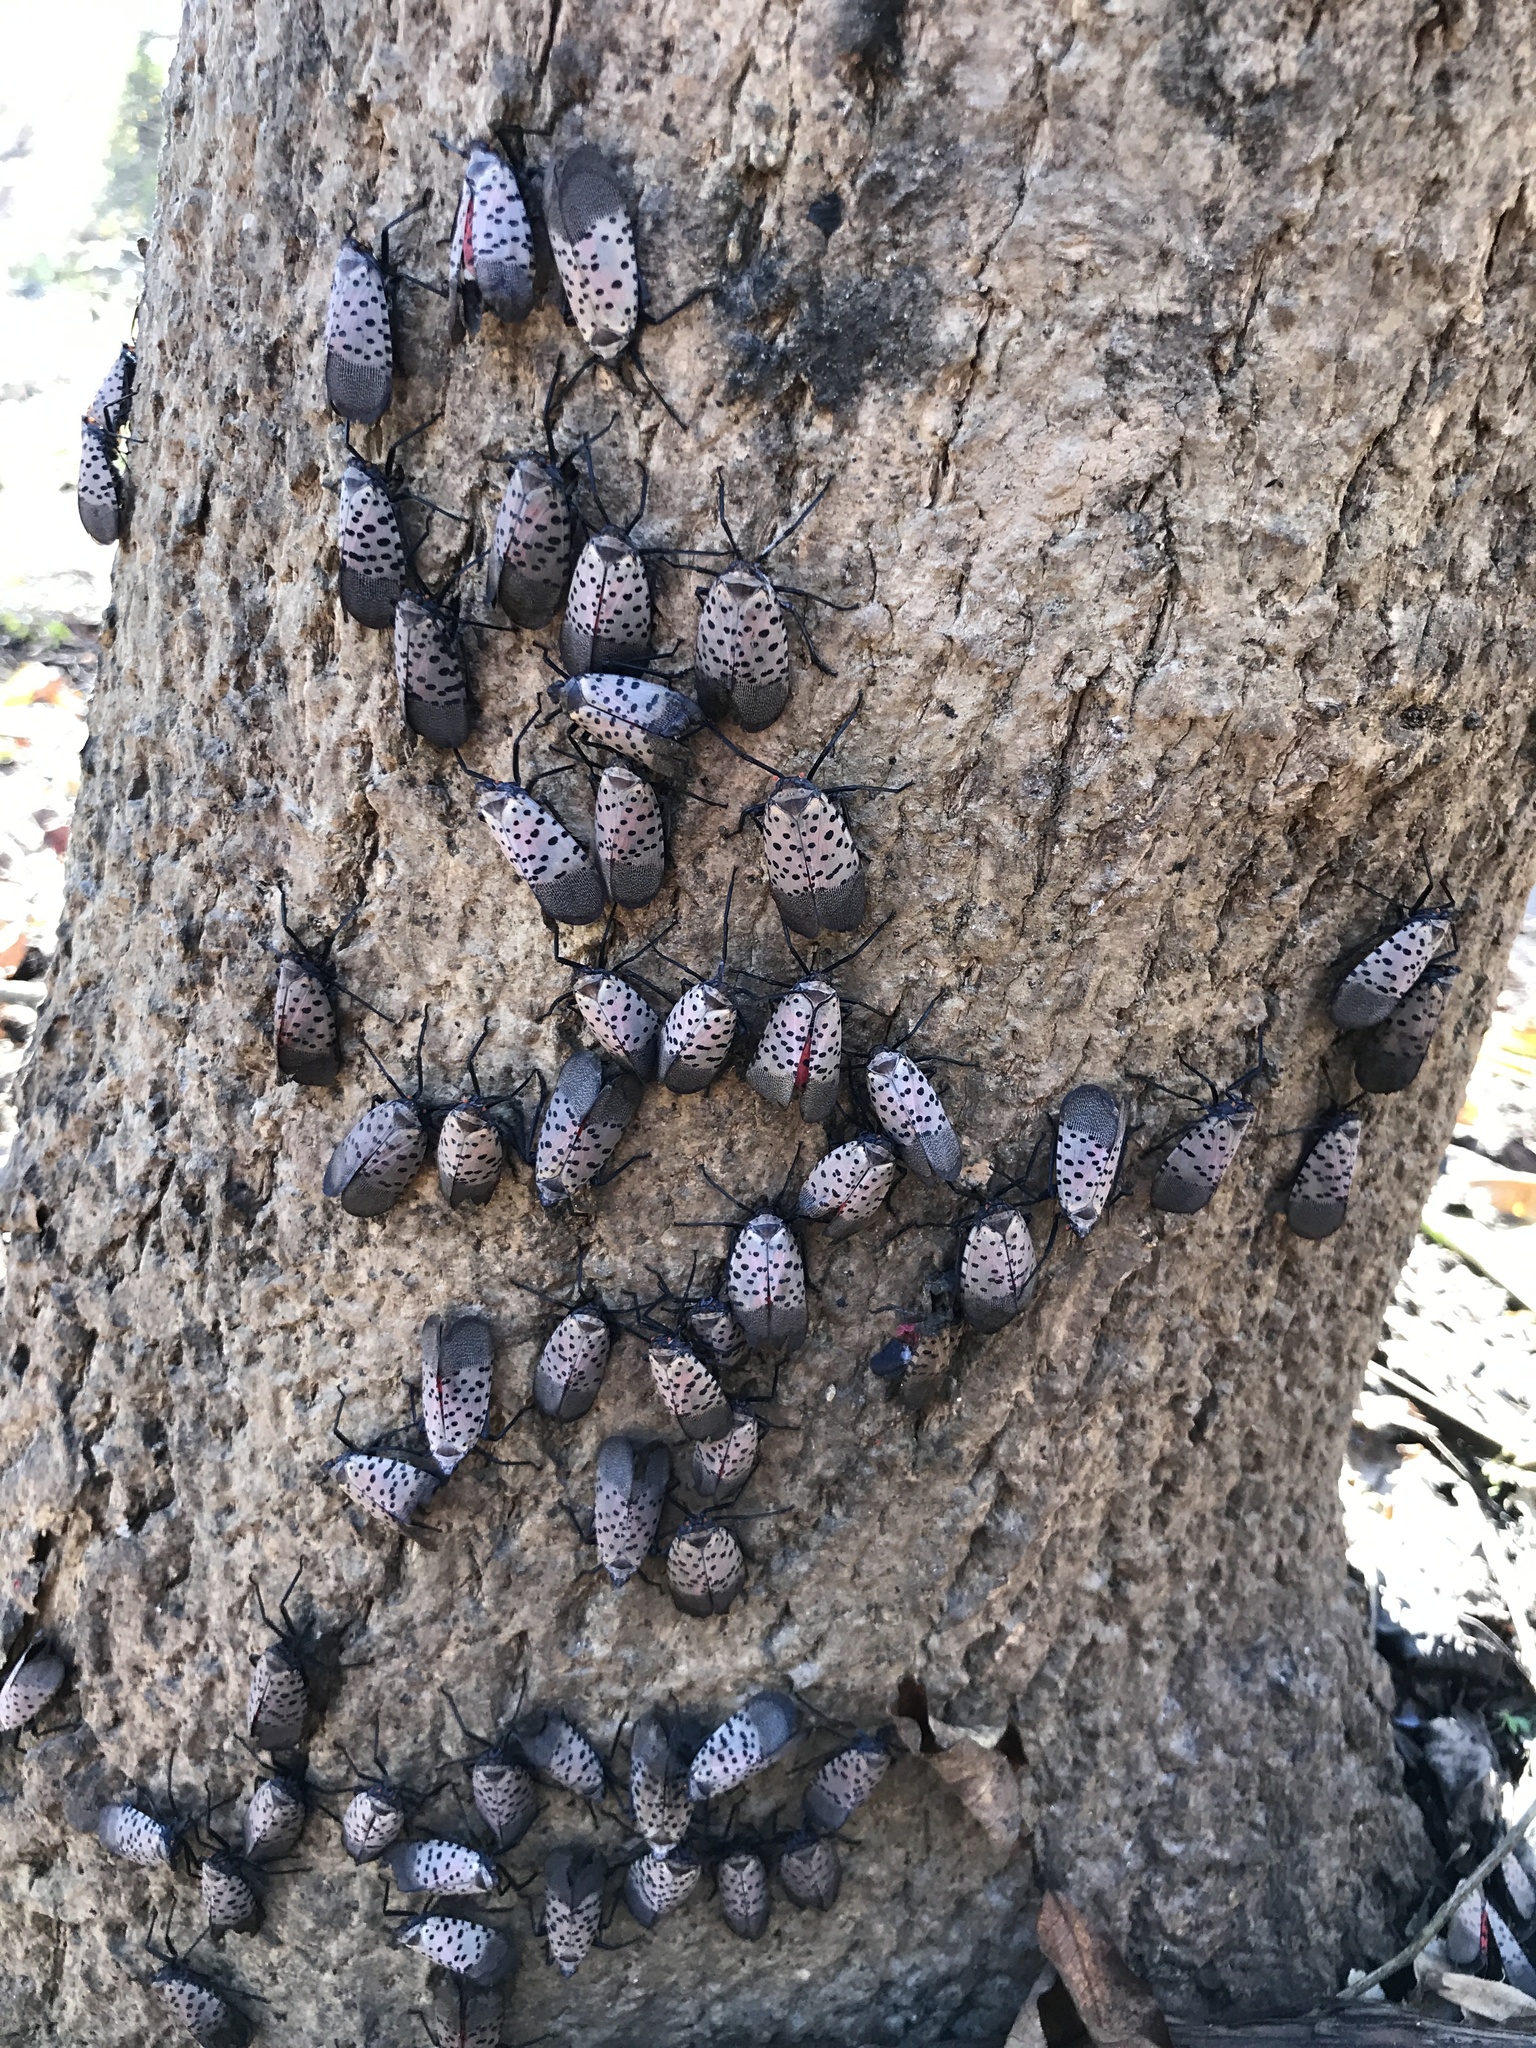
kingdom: Animalia
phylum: Arthropoda
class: Insecta
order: Hemiptera
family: Fulgoridae
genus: Lycorma
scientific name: Lycorma delicatula
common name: Spotted lanternfly
